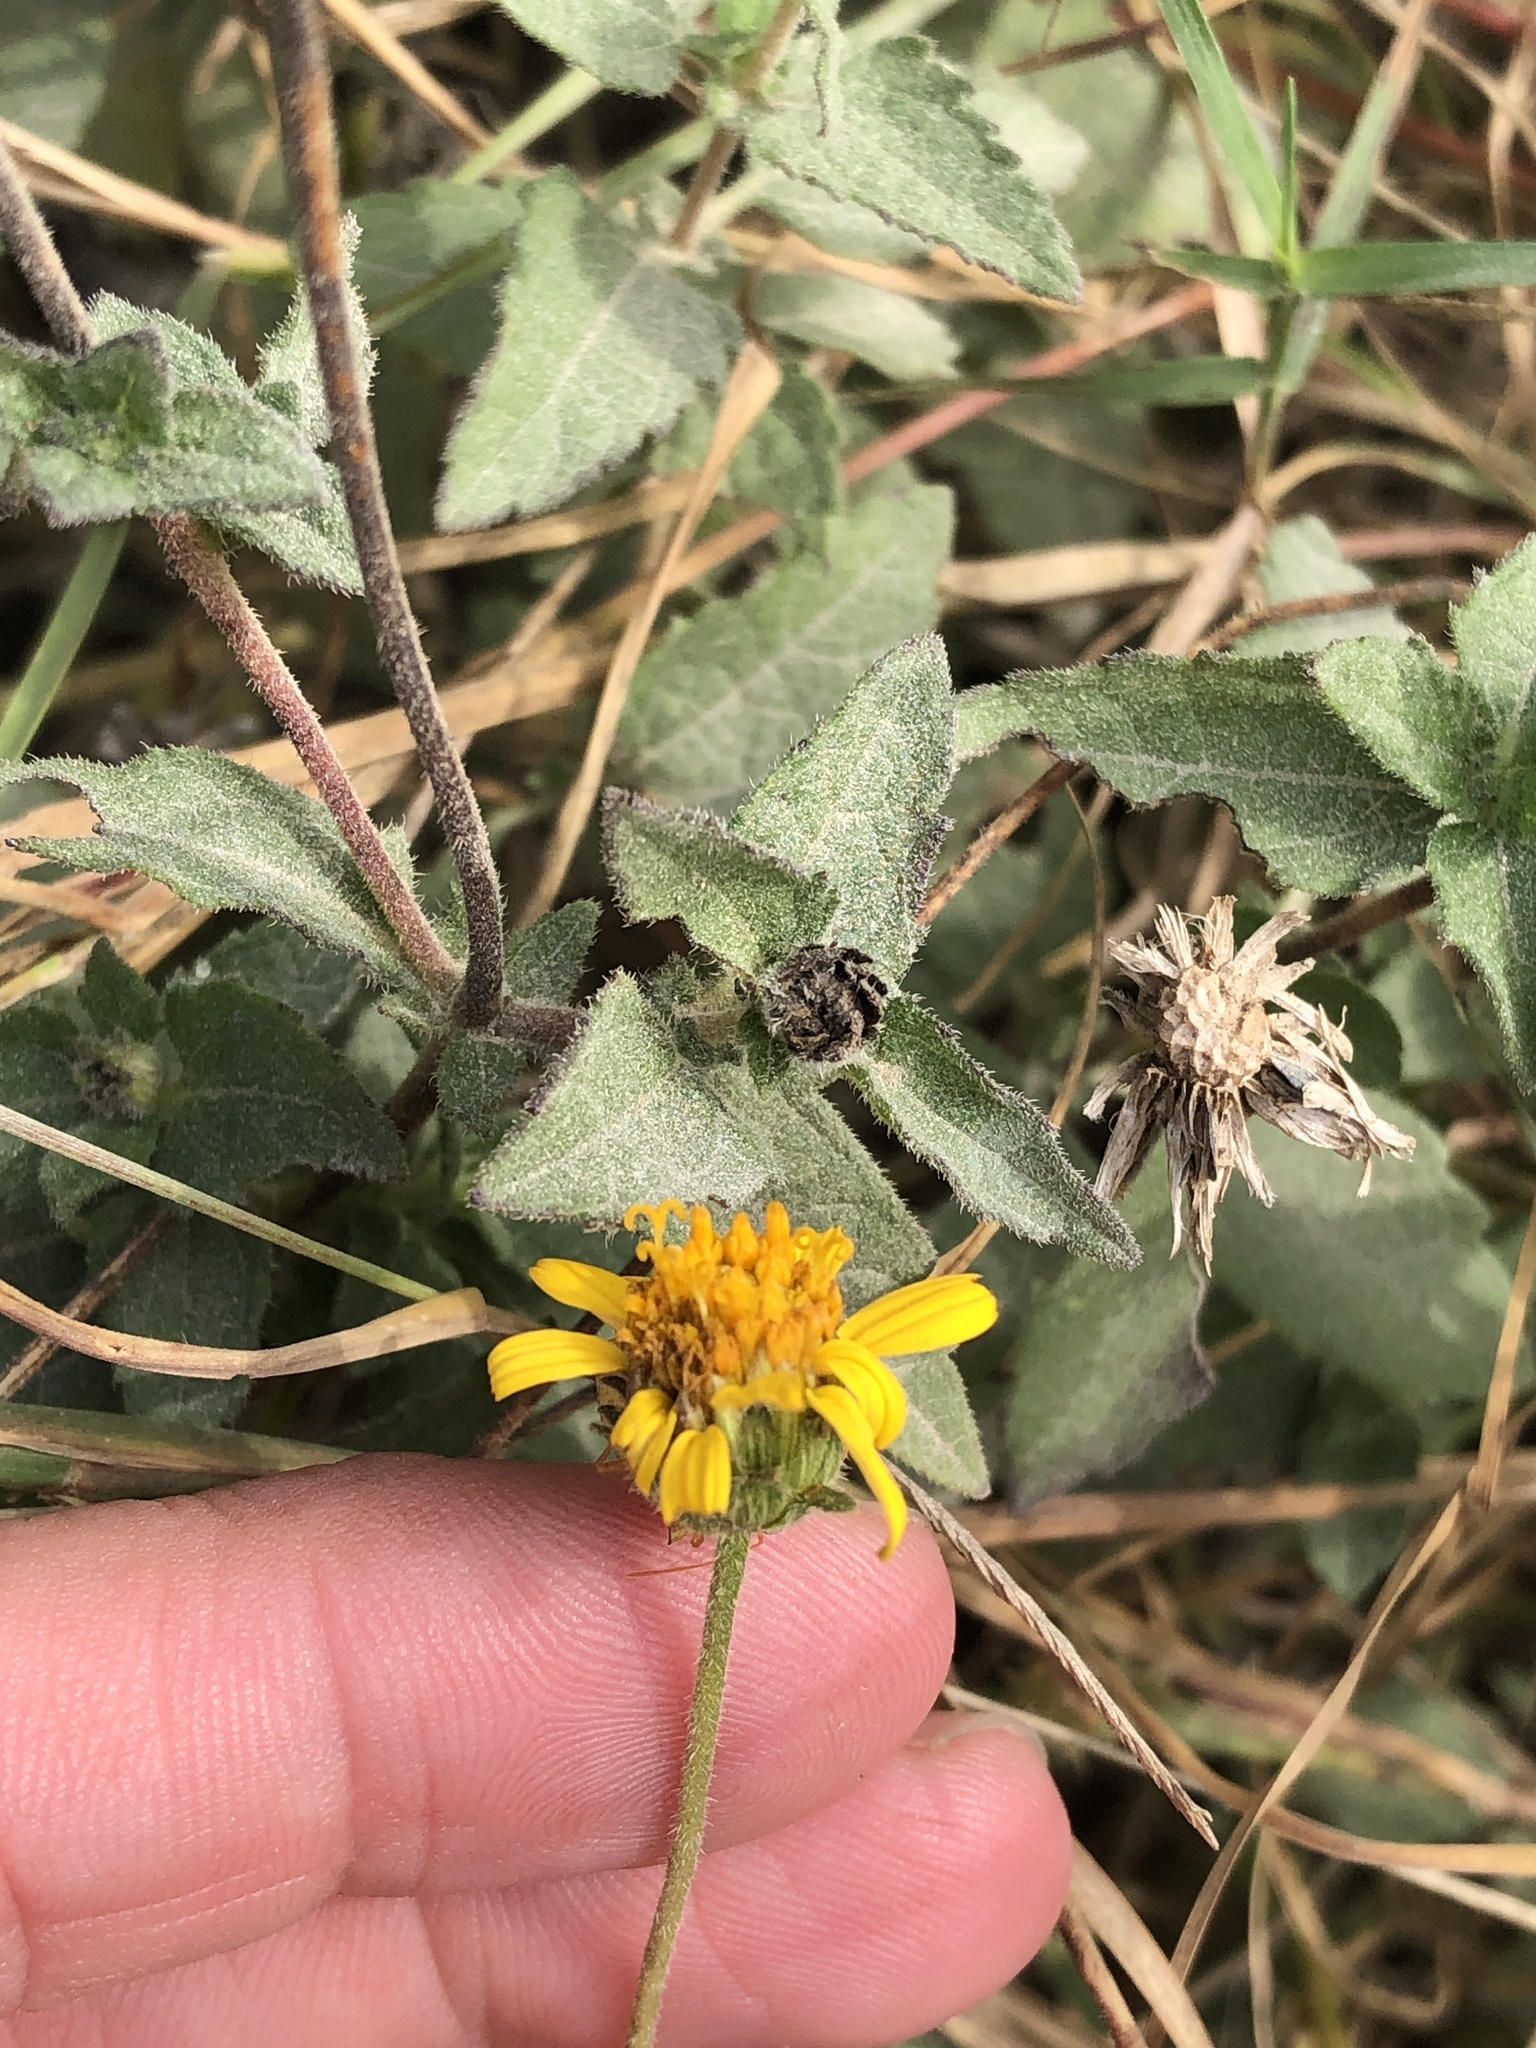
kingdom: Plantae
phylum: Tracheophyta
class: Magnoliopsida
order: Asterales
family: Asteraceae
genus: Simsia
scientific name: Simsia calva
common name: Awnless bush-sunflower
